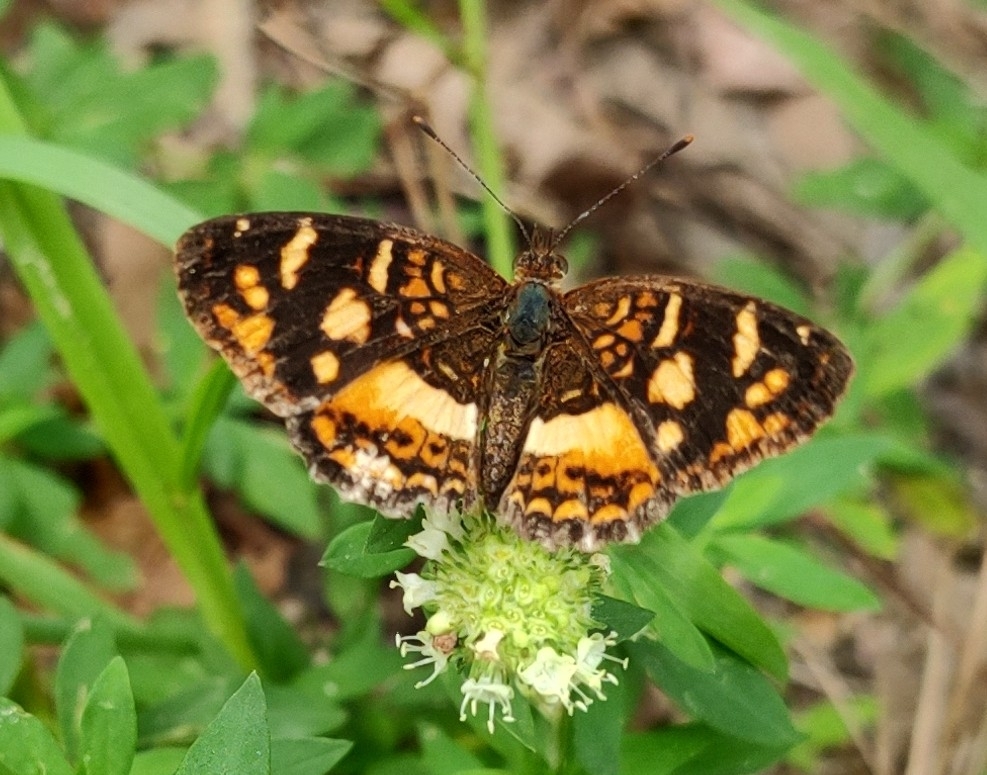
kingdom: Animalia
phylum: Arthropoda
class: Insecta
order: Lepidoptera
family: Nymphalidae
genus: Ortilia
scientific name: Ortilia orthia
